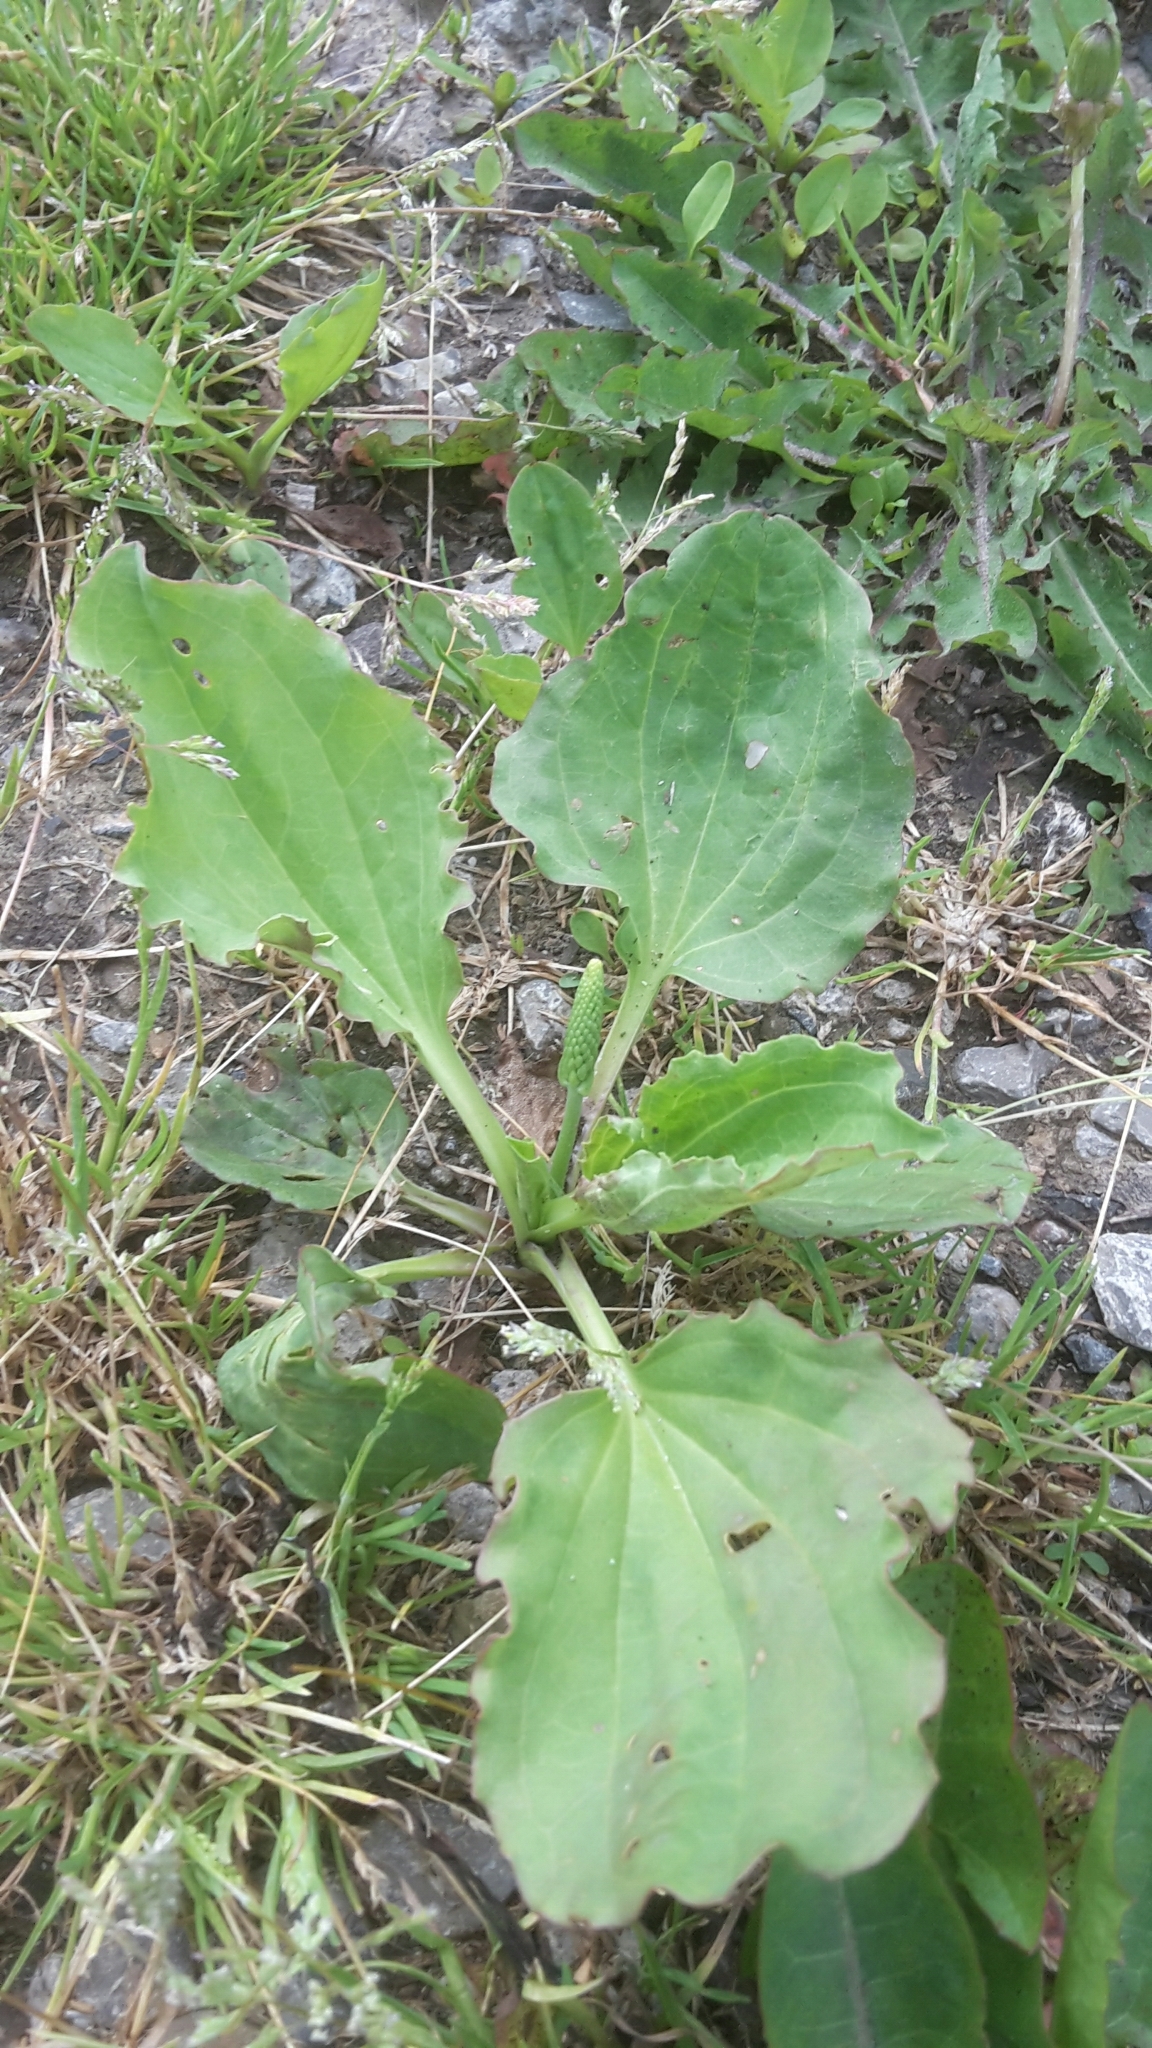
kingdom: Plantae
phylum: Tracheophyta
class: Magnoliopsida
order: Lamiales
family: Plantaginaceae
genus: Plantago
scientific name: Plantago major
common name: Common plantain
